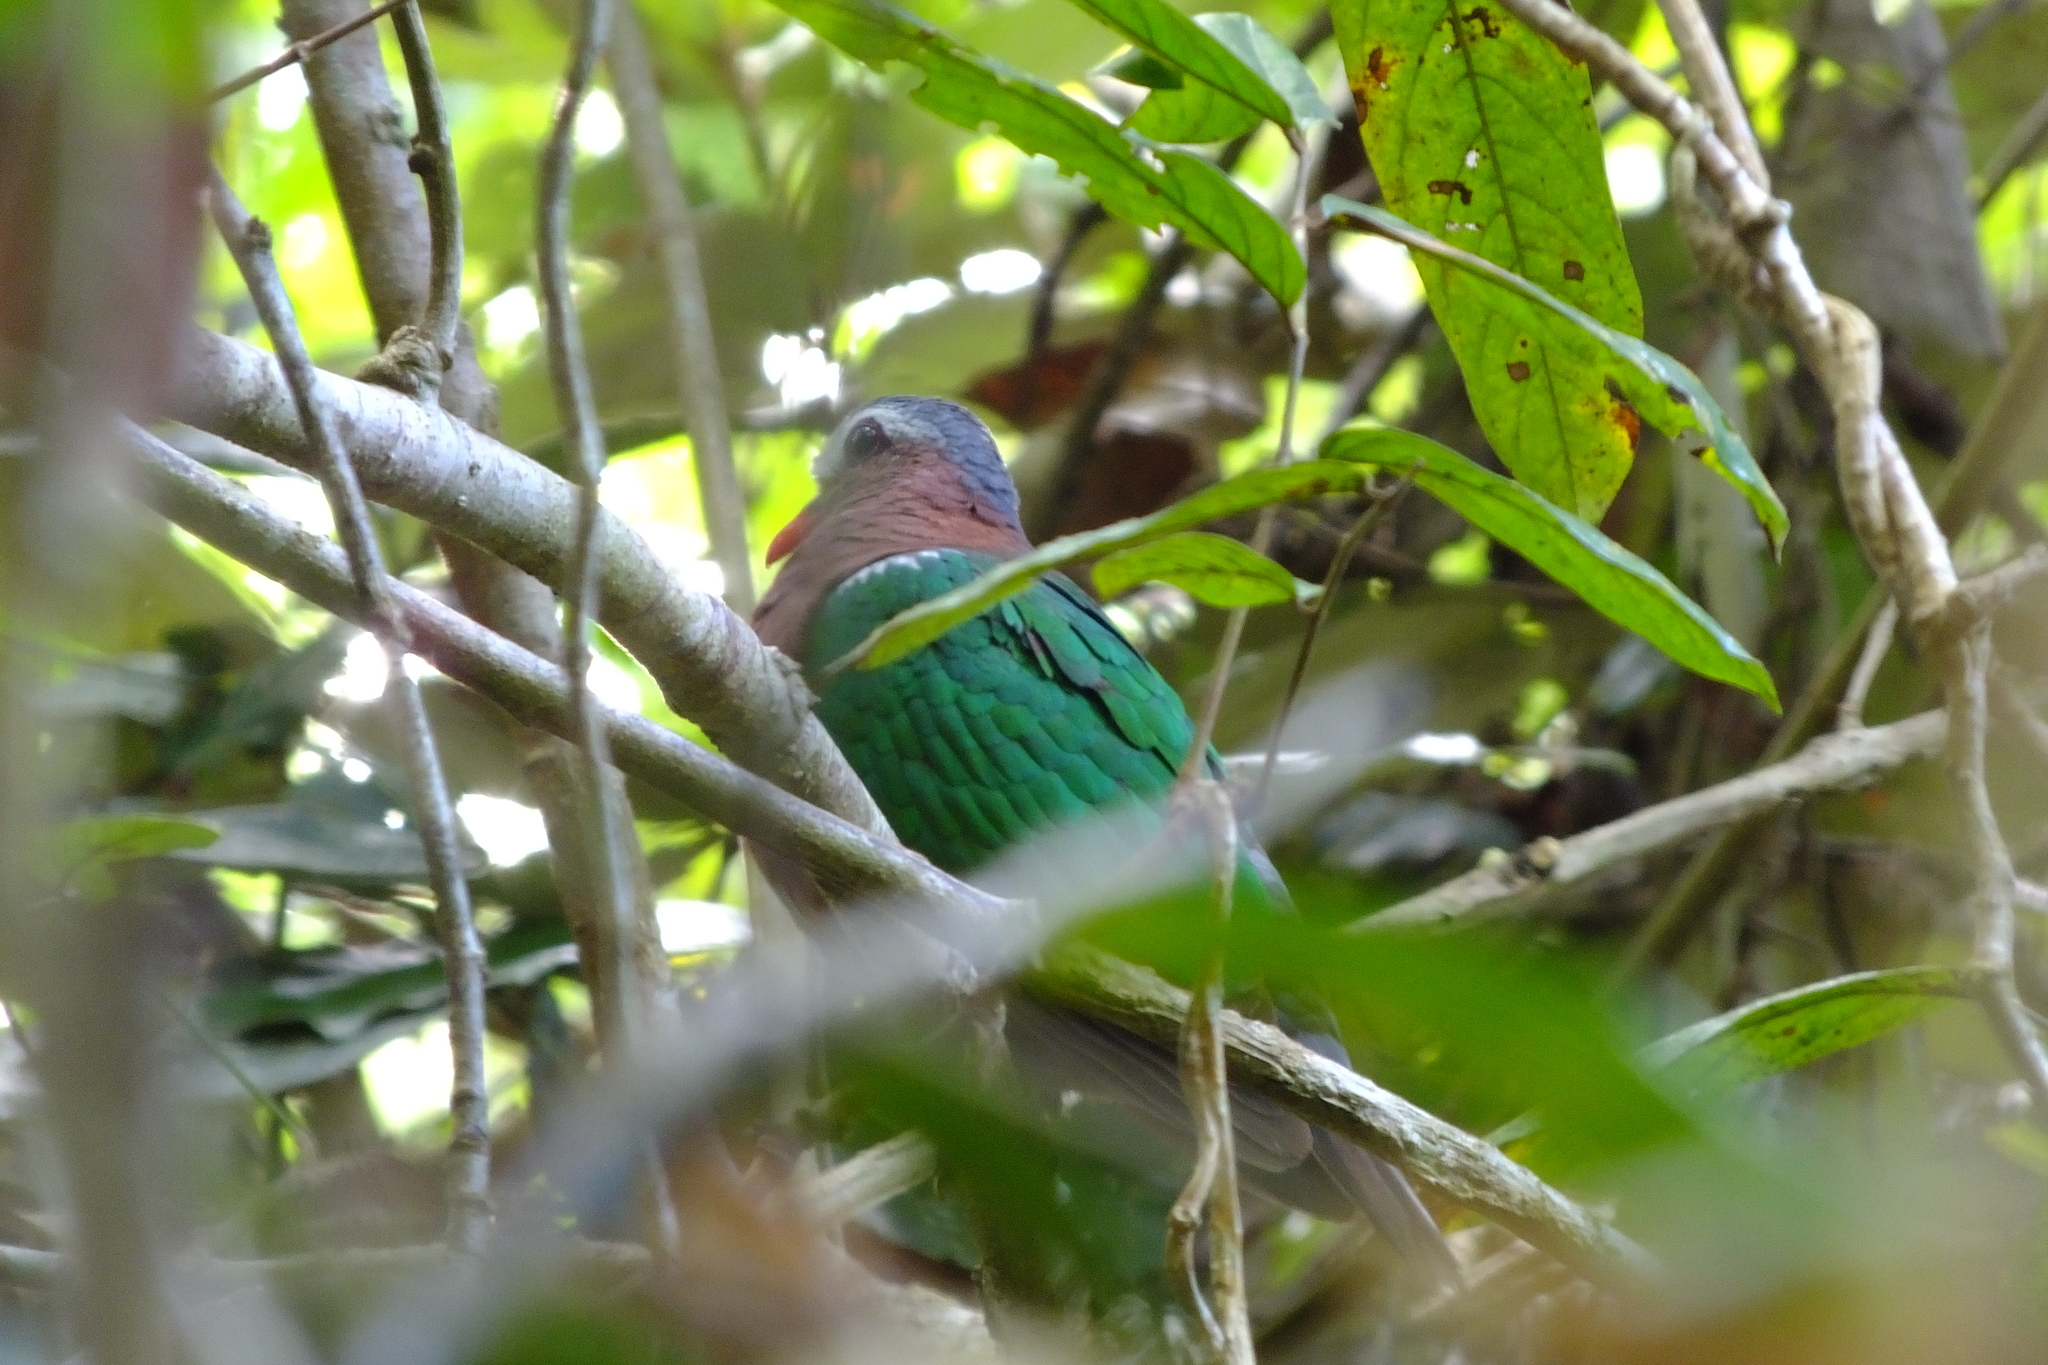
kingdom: Animalia
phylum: Chordata
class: Aves
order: Columbiformes
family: Columbidae
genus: Chalcophaps
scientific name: Chalcophaps indica
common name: Common emerald dove
